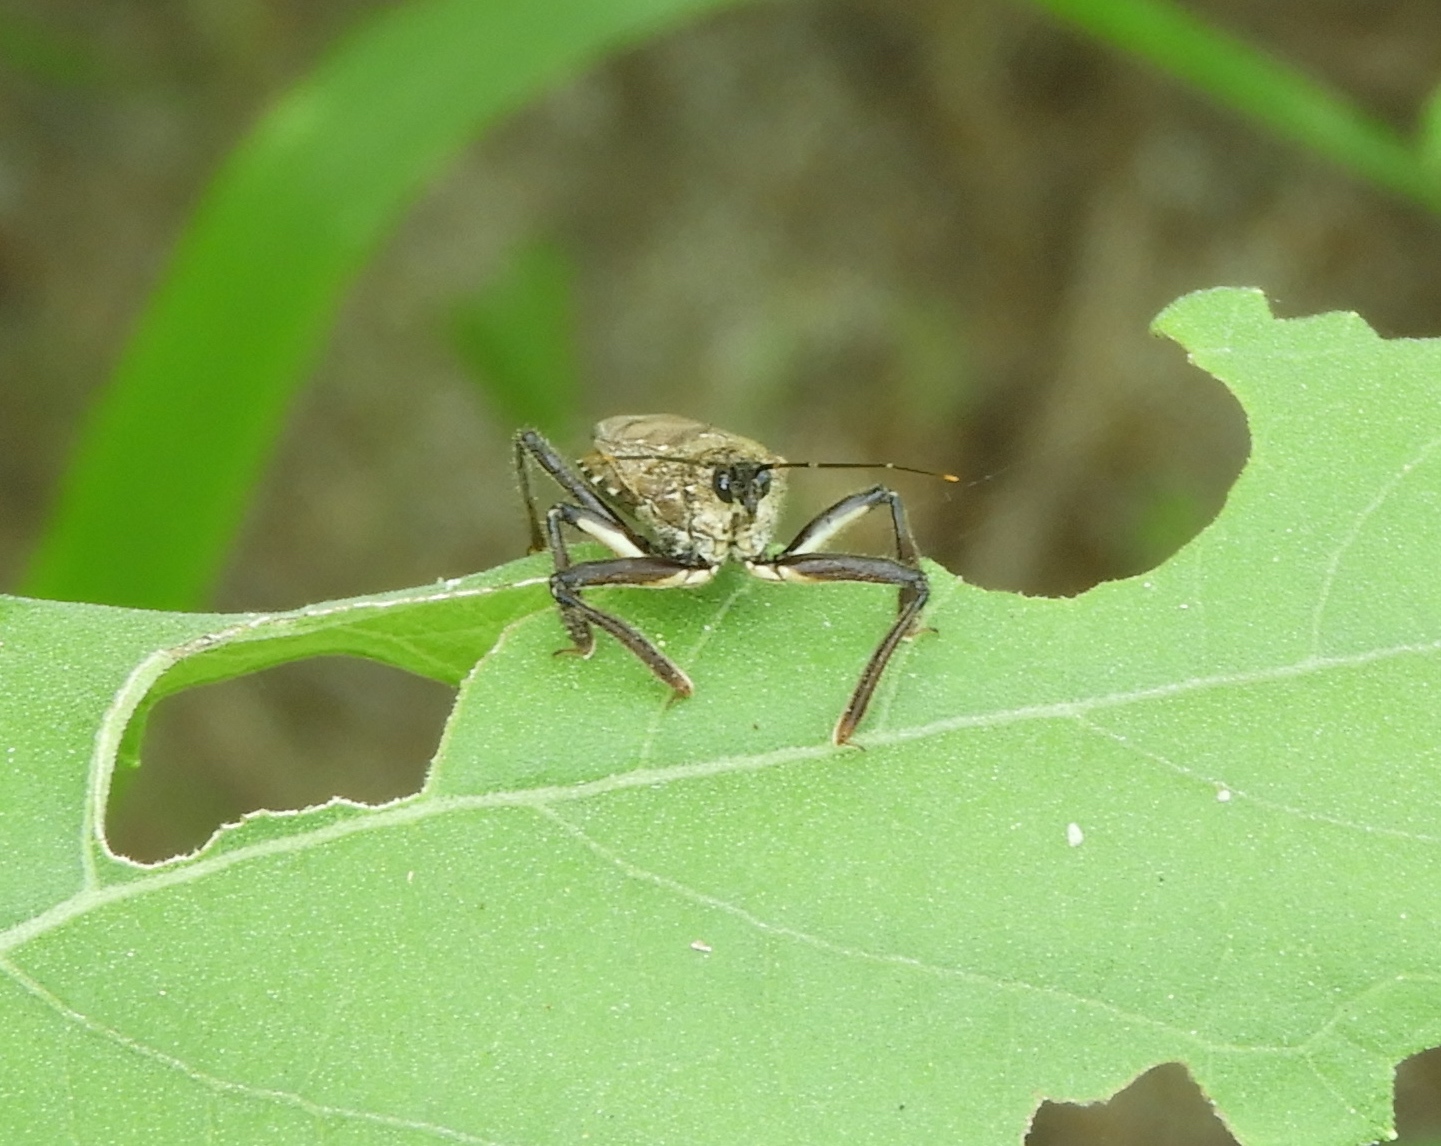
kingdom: Animalia
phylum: Arthropoda
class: Insecta
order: Hemiptera
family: Reduviidae
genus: Apiomerus
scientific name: Apiomerus
